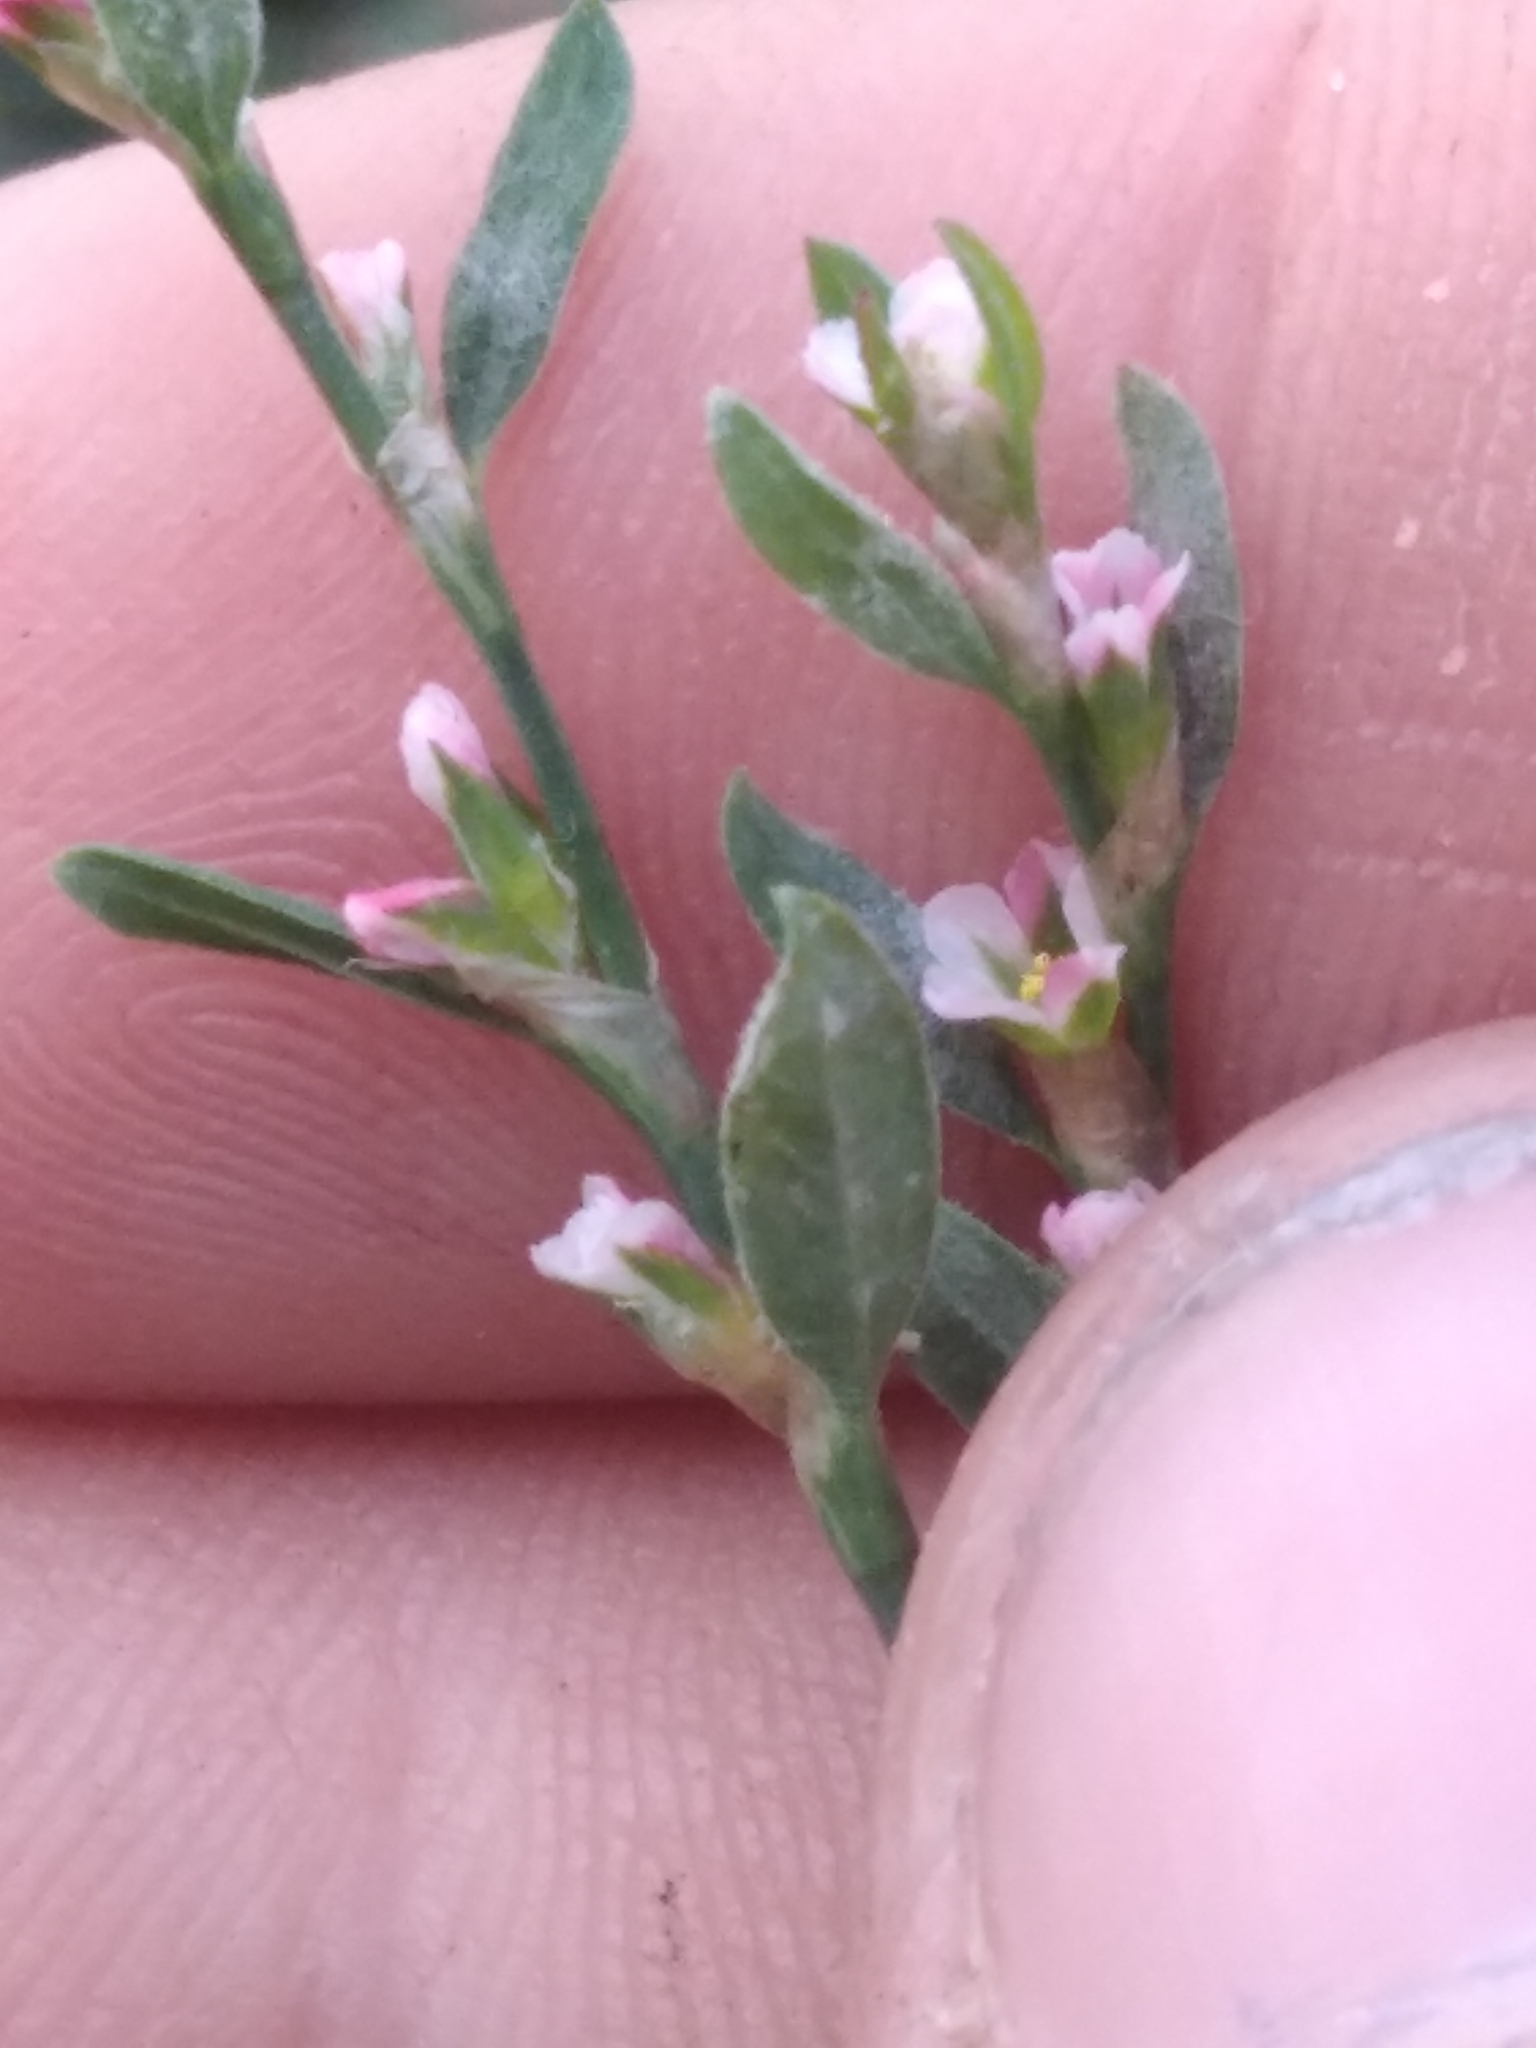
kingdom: Plantae
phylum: Tracheophyta
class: Magnoliopsida
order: Caryophyllales
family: Polygonaceae
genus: Polygonum
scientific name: Polygonum aviculare
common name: Prostrate knotweed
